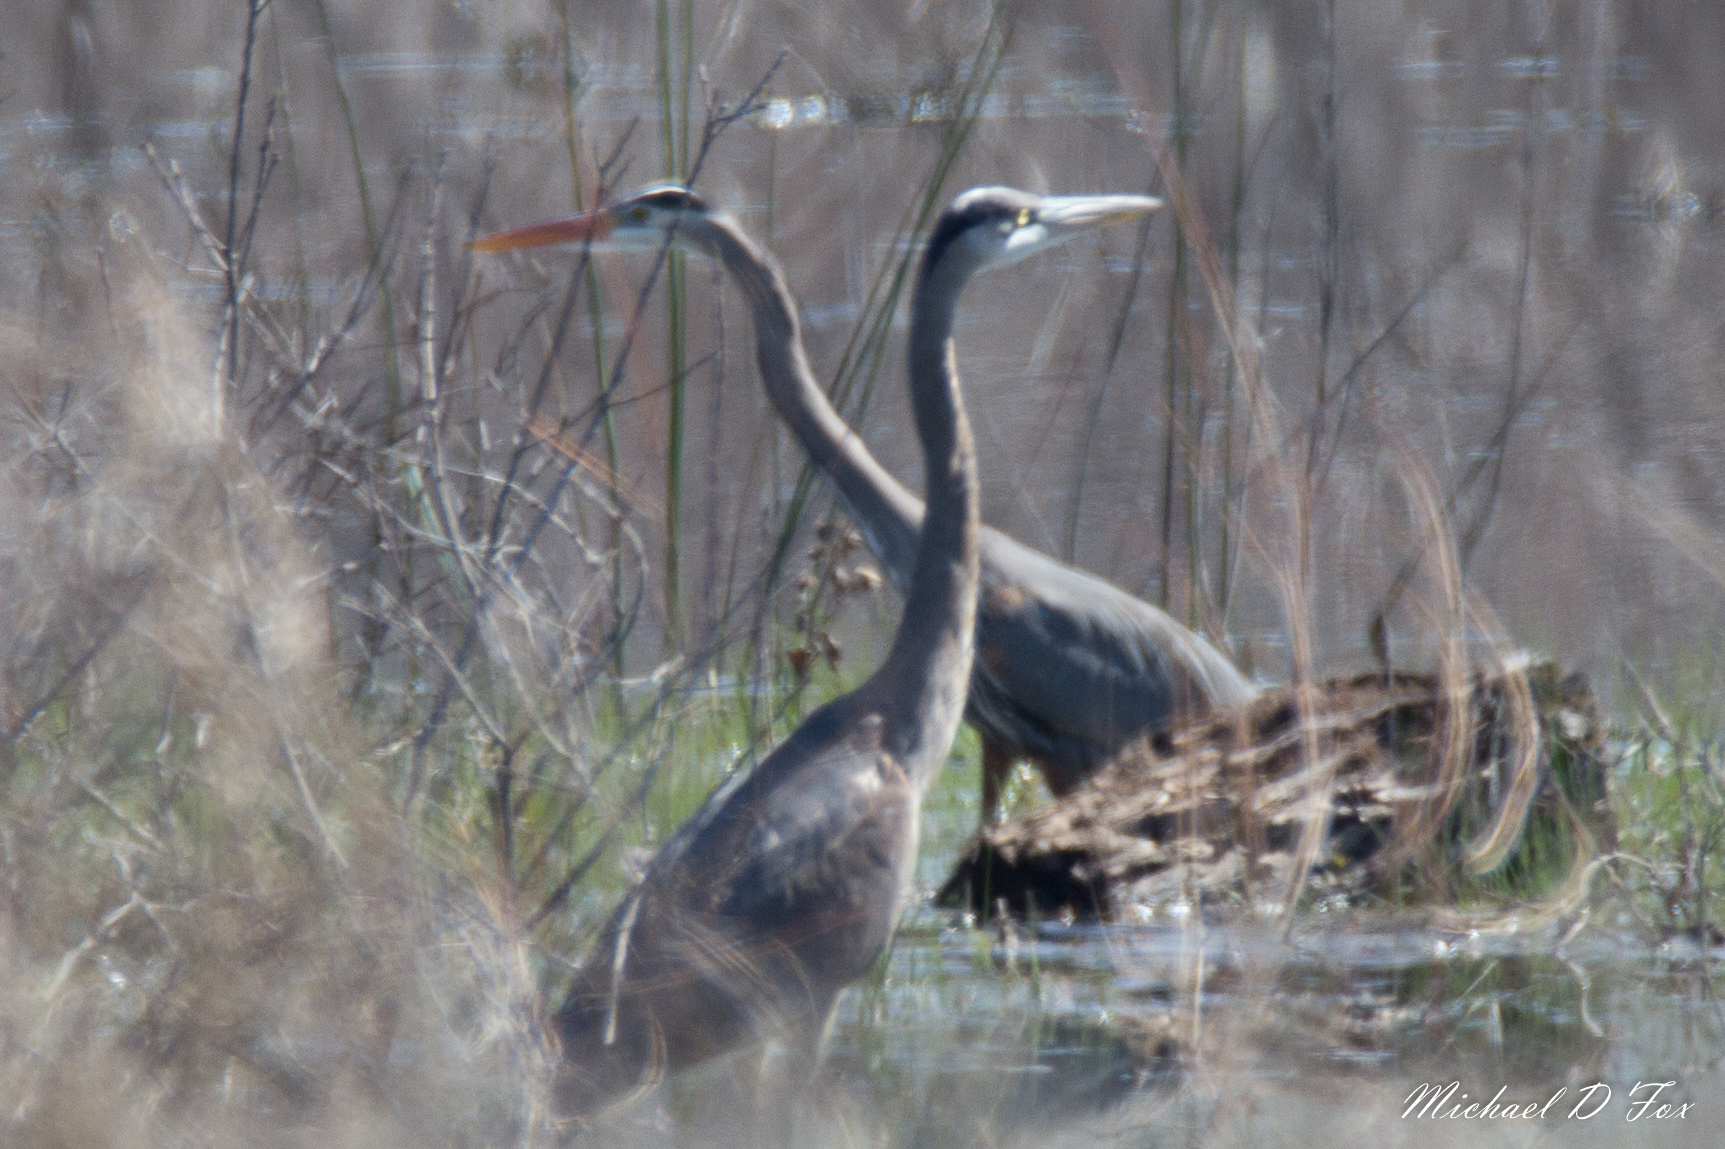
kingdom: Animalia
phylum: Chordata
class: Aves
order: Pelecaniformes
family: Ardeidae
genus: Ardea
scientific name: Ardea herodias
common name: Great blue heron
